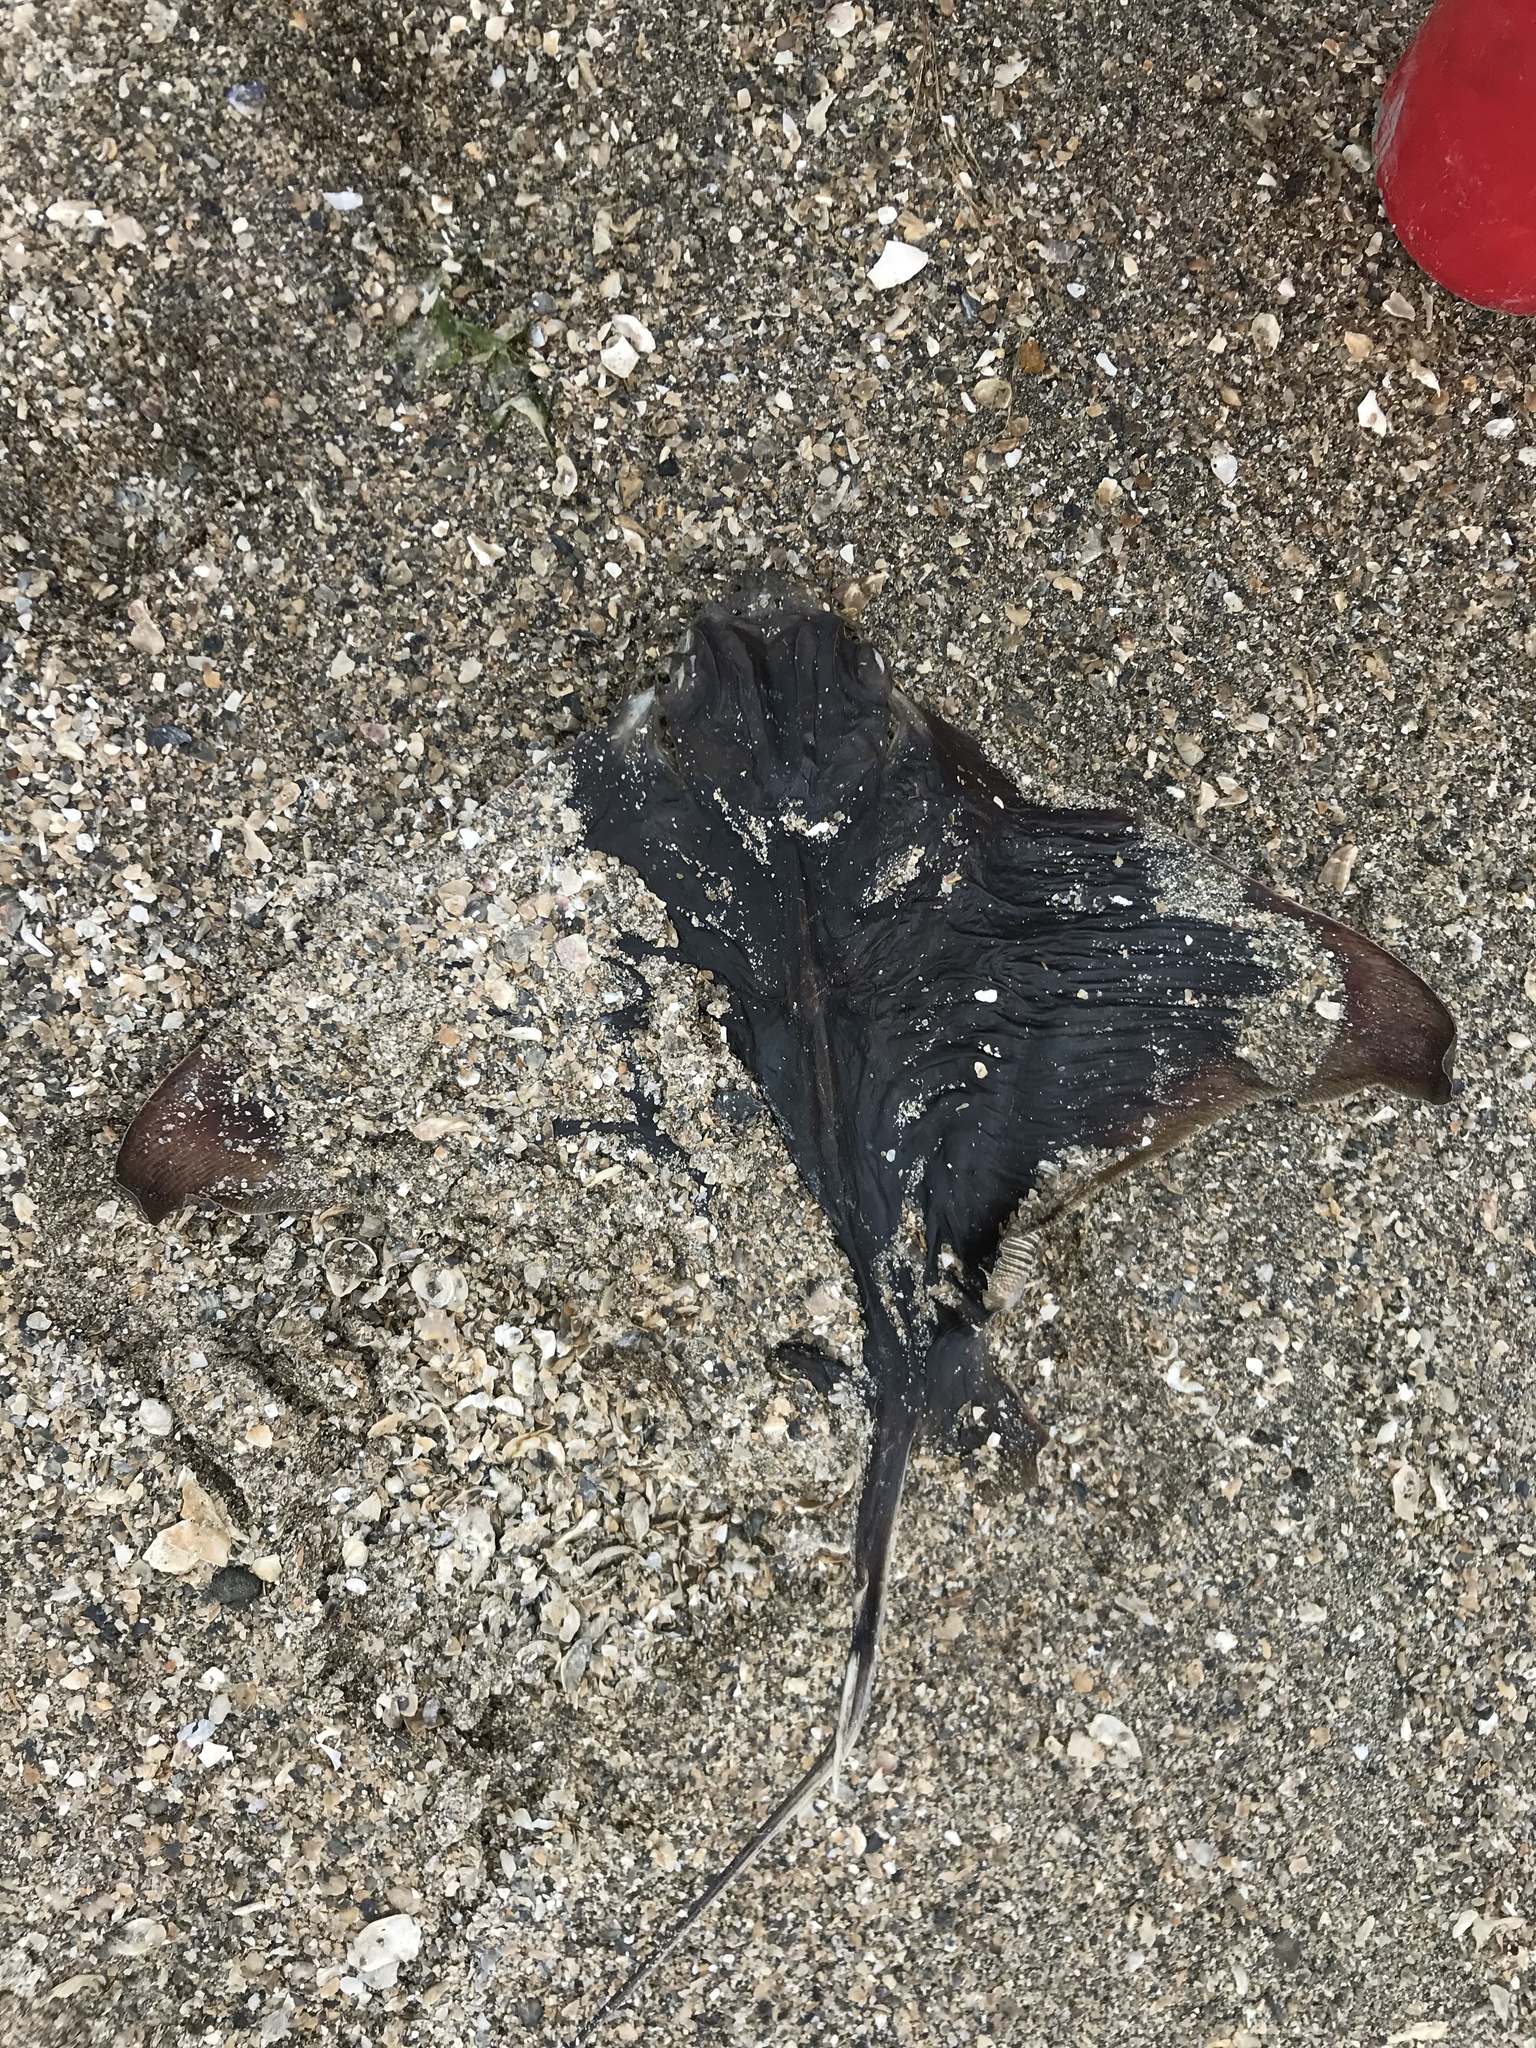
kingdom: Animalia
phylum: Chordata
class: Elasmobranchii
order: Myliobatiformes
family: Myliobatidae
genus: Myliobatis
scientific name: Myliobatis californica
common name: Bat ray
